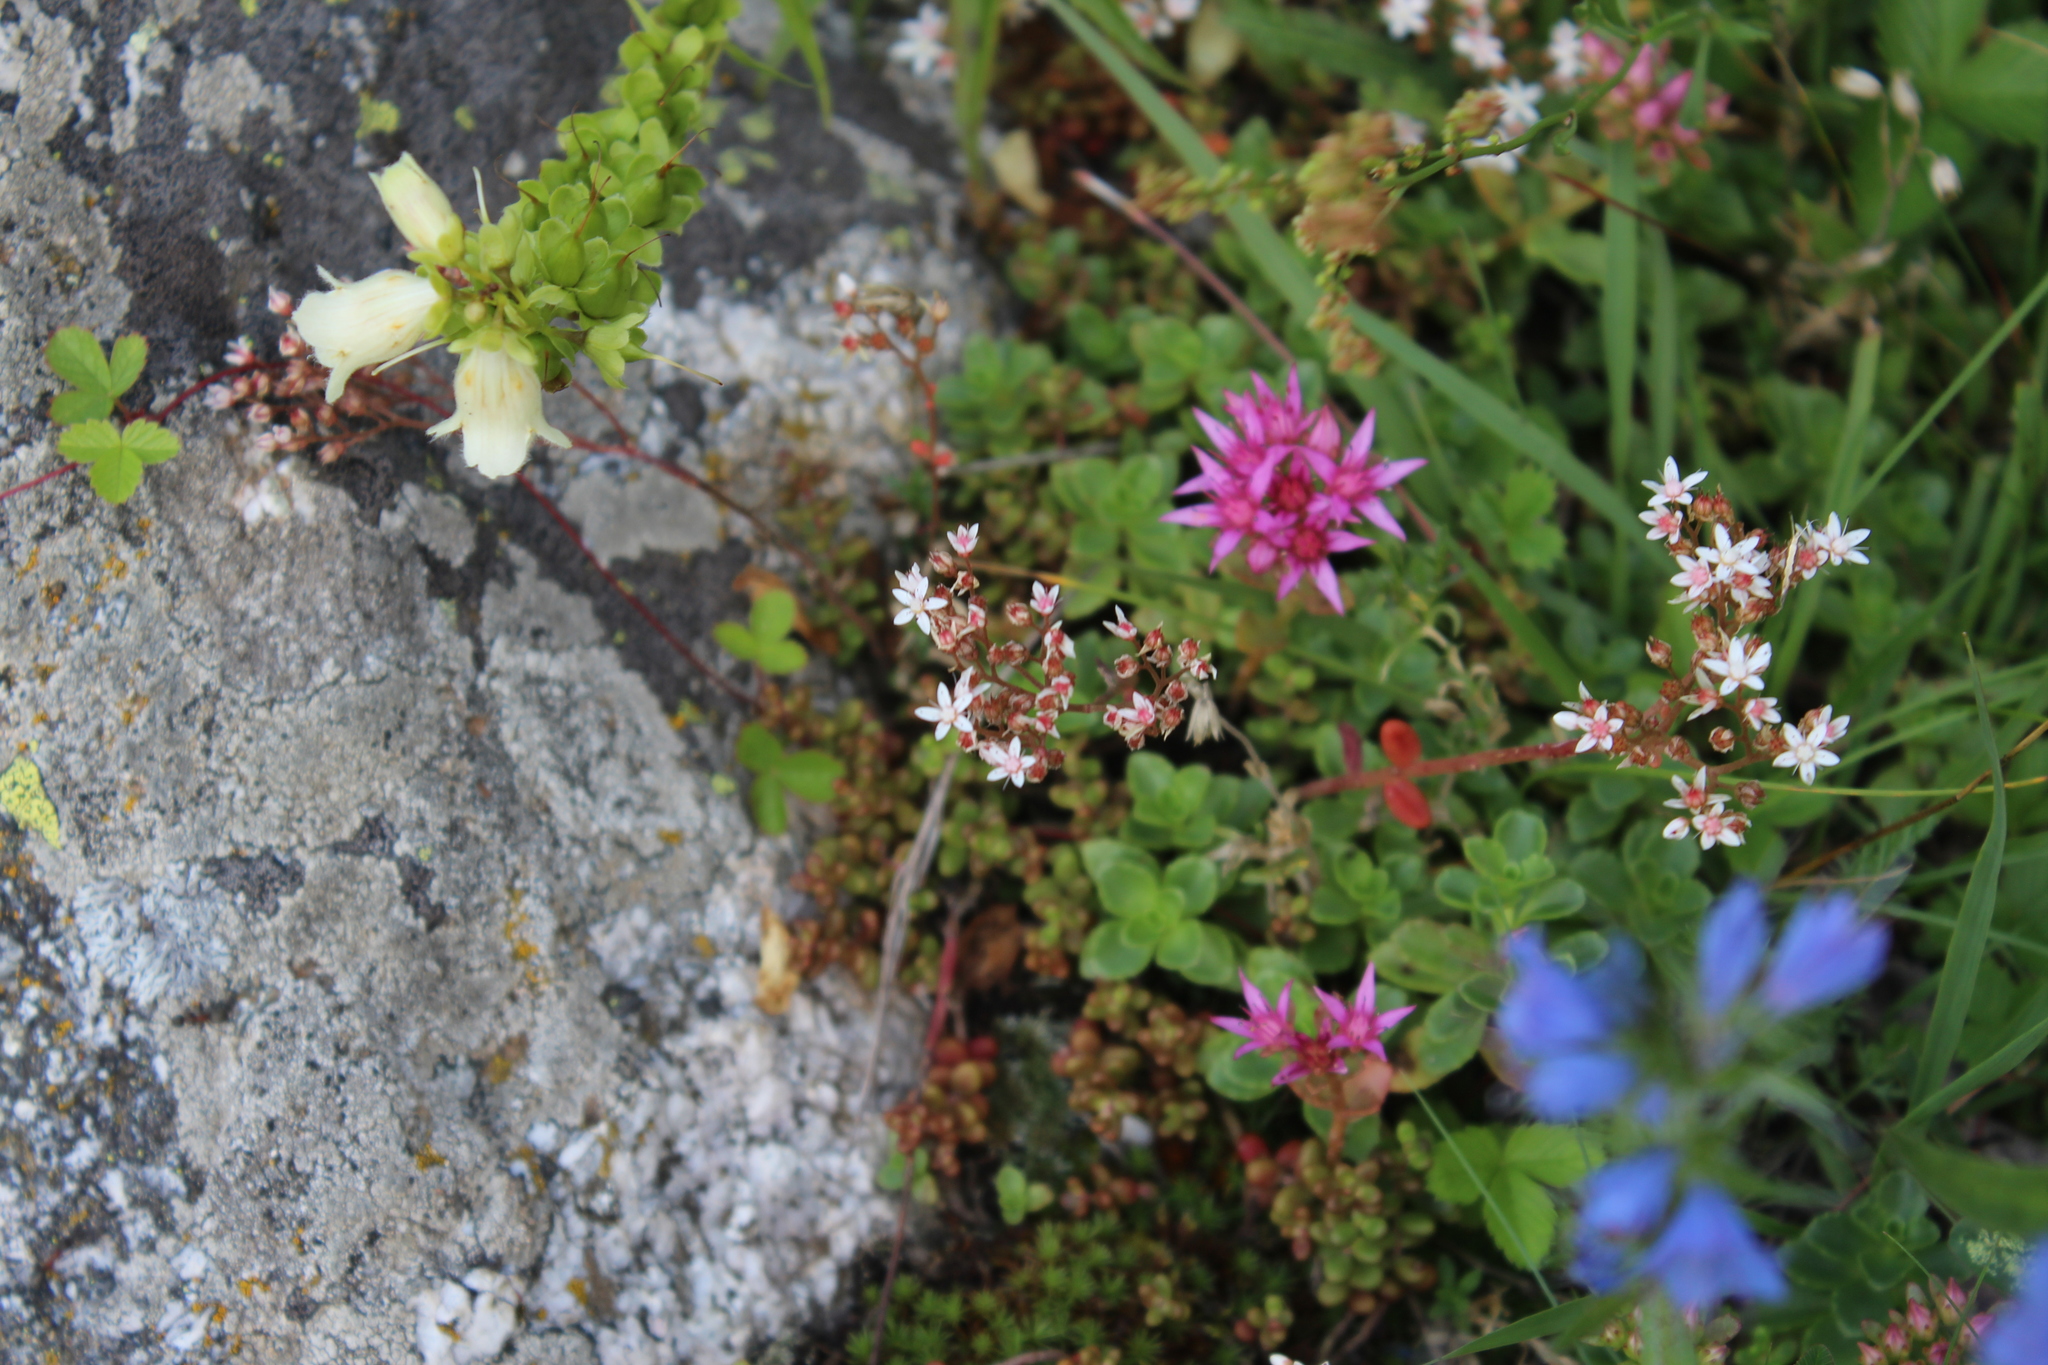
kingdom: Plantae
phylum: Tracheophyta
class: Magnoliopsida
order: Saxifragales
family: Crassulaceae
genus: Sedum
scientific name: Sedum album
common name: White stonecrop
